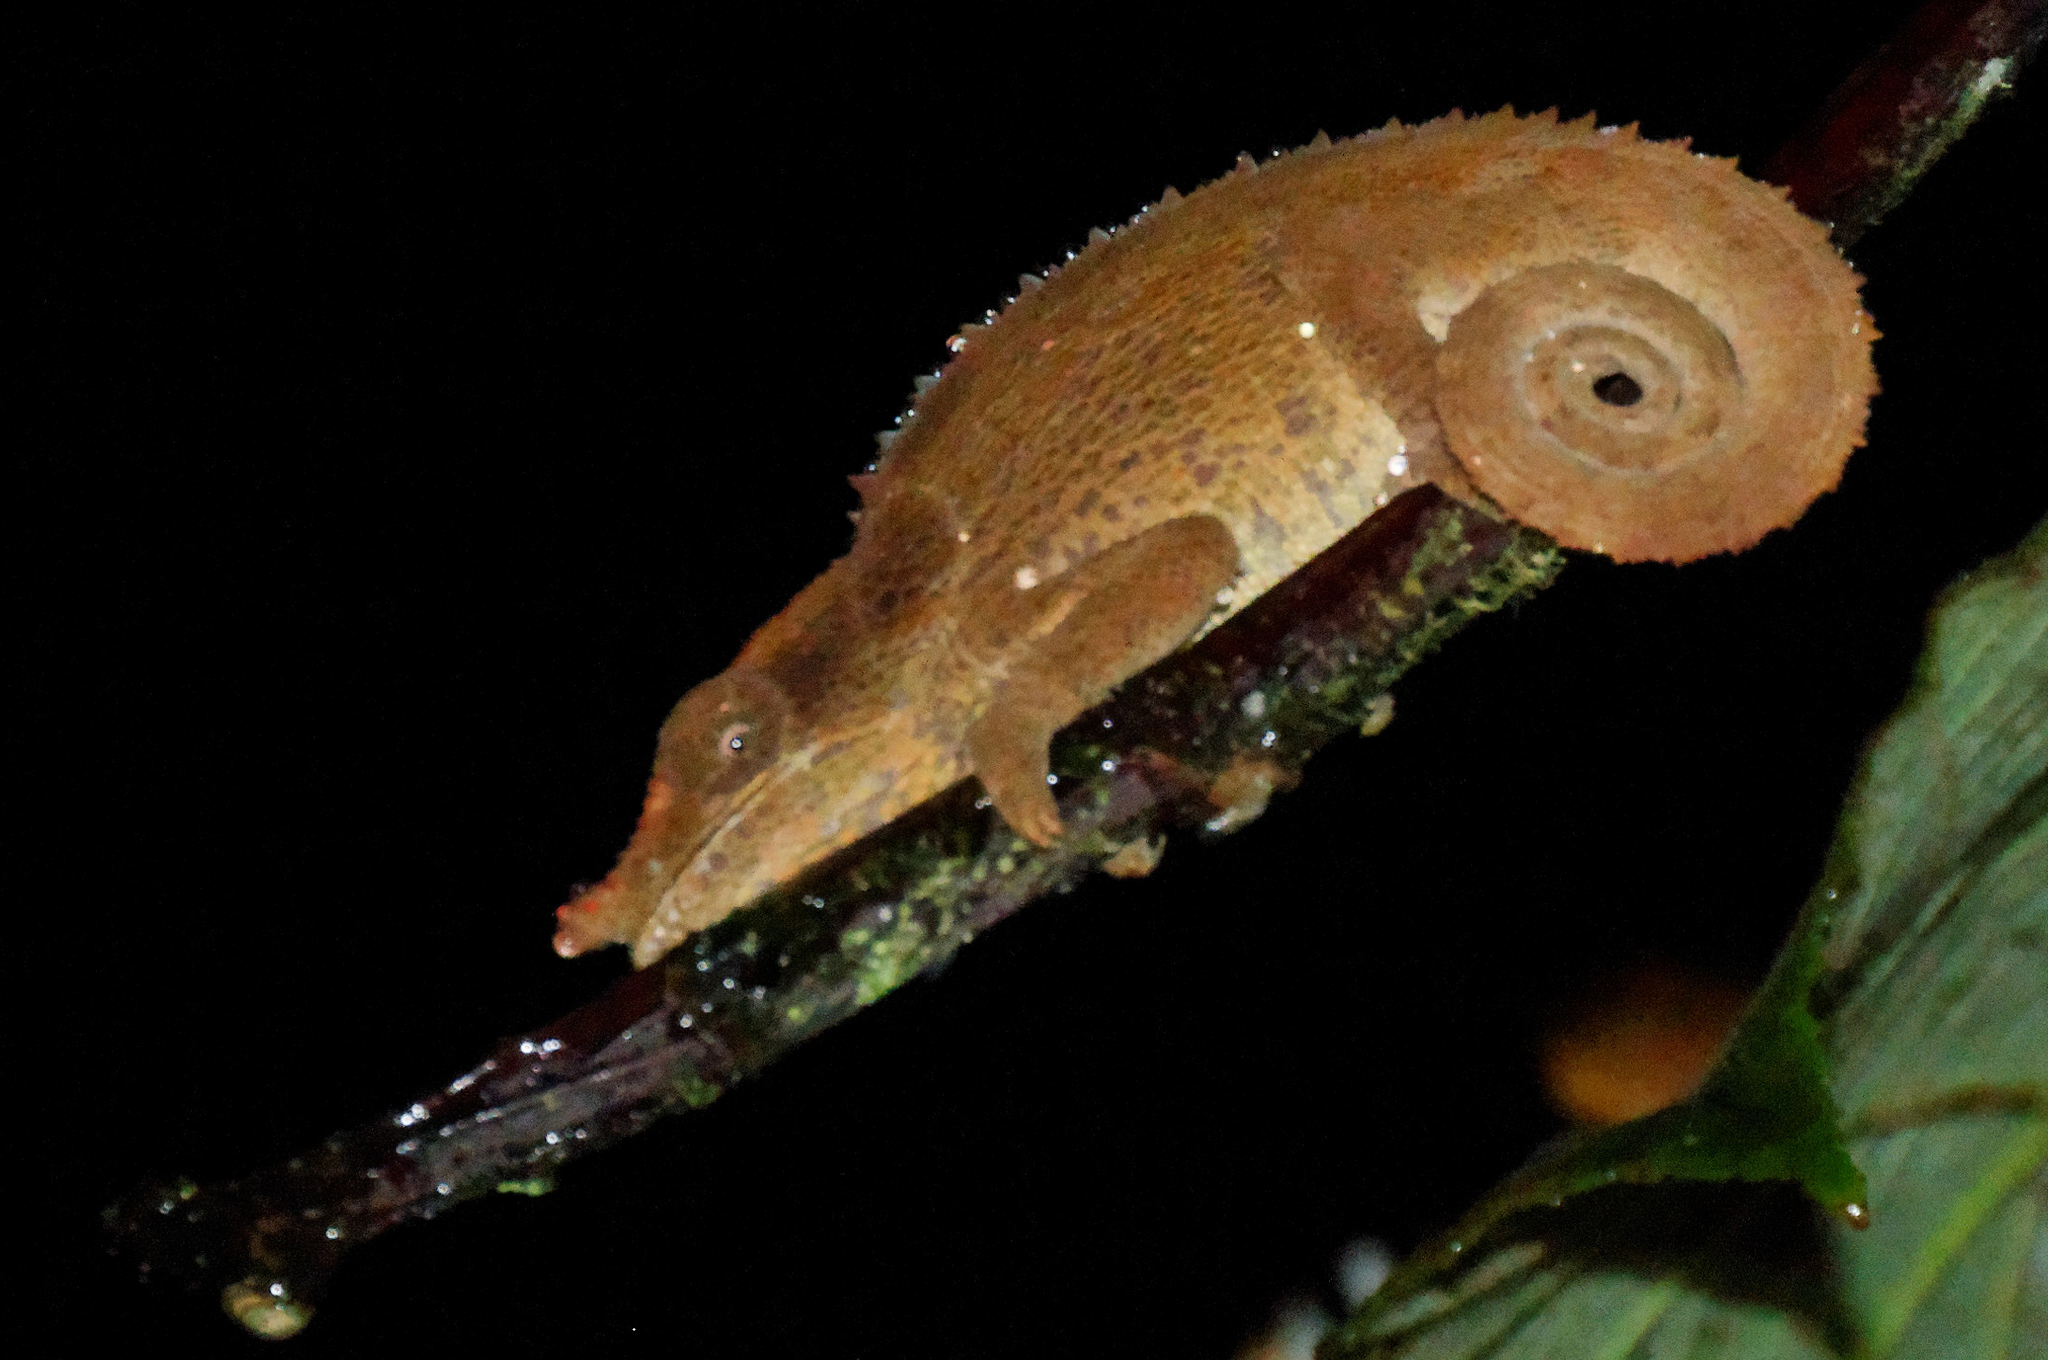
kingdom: Animalia
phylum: Chordata
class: Squamata
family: Chamaeleonidae
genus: Calumma
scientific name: Calumma crypticum
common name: Cryptic chameleon
